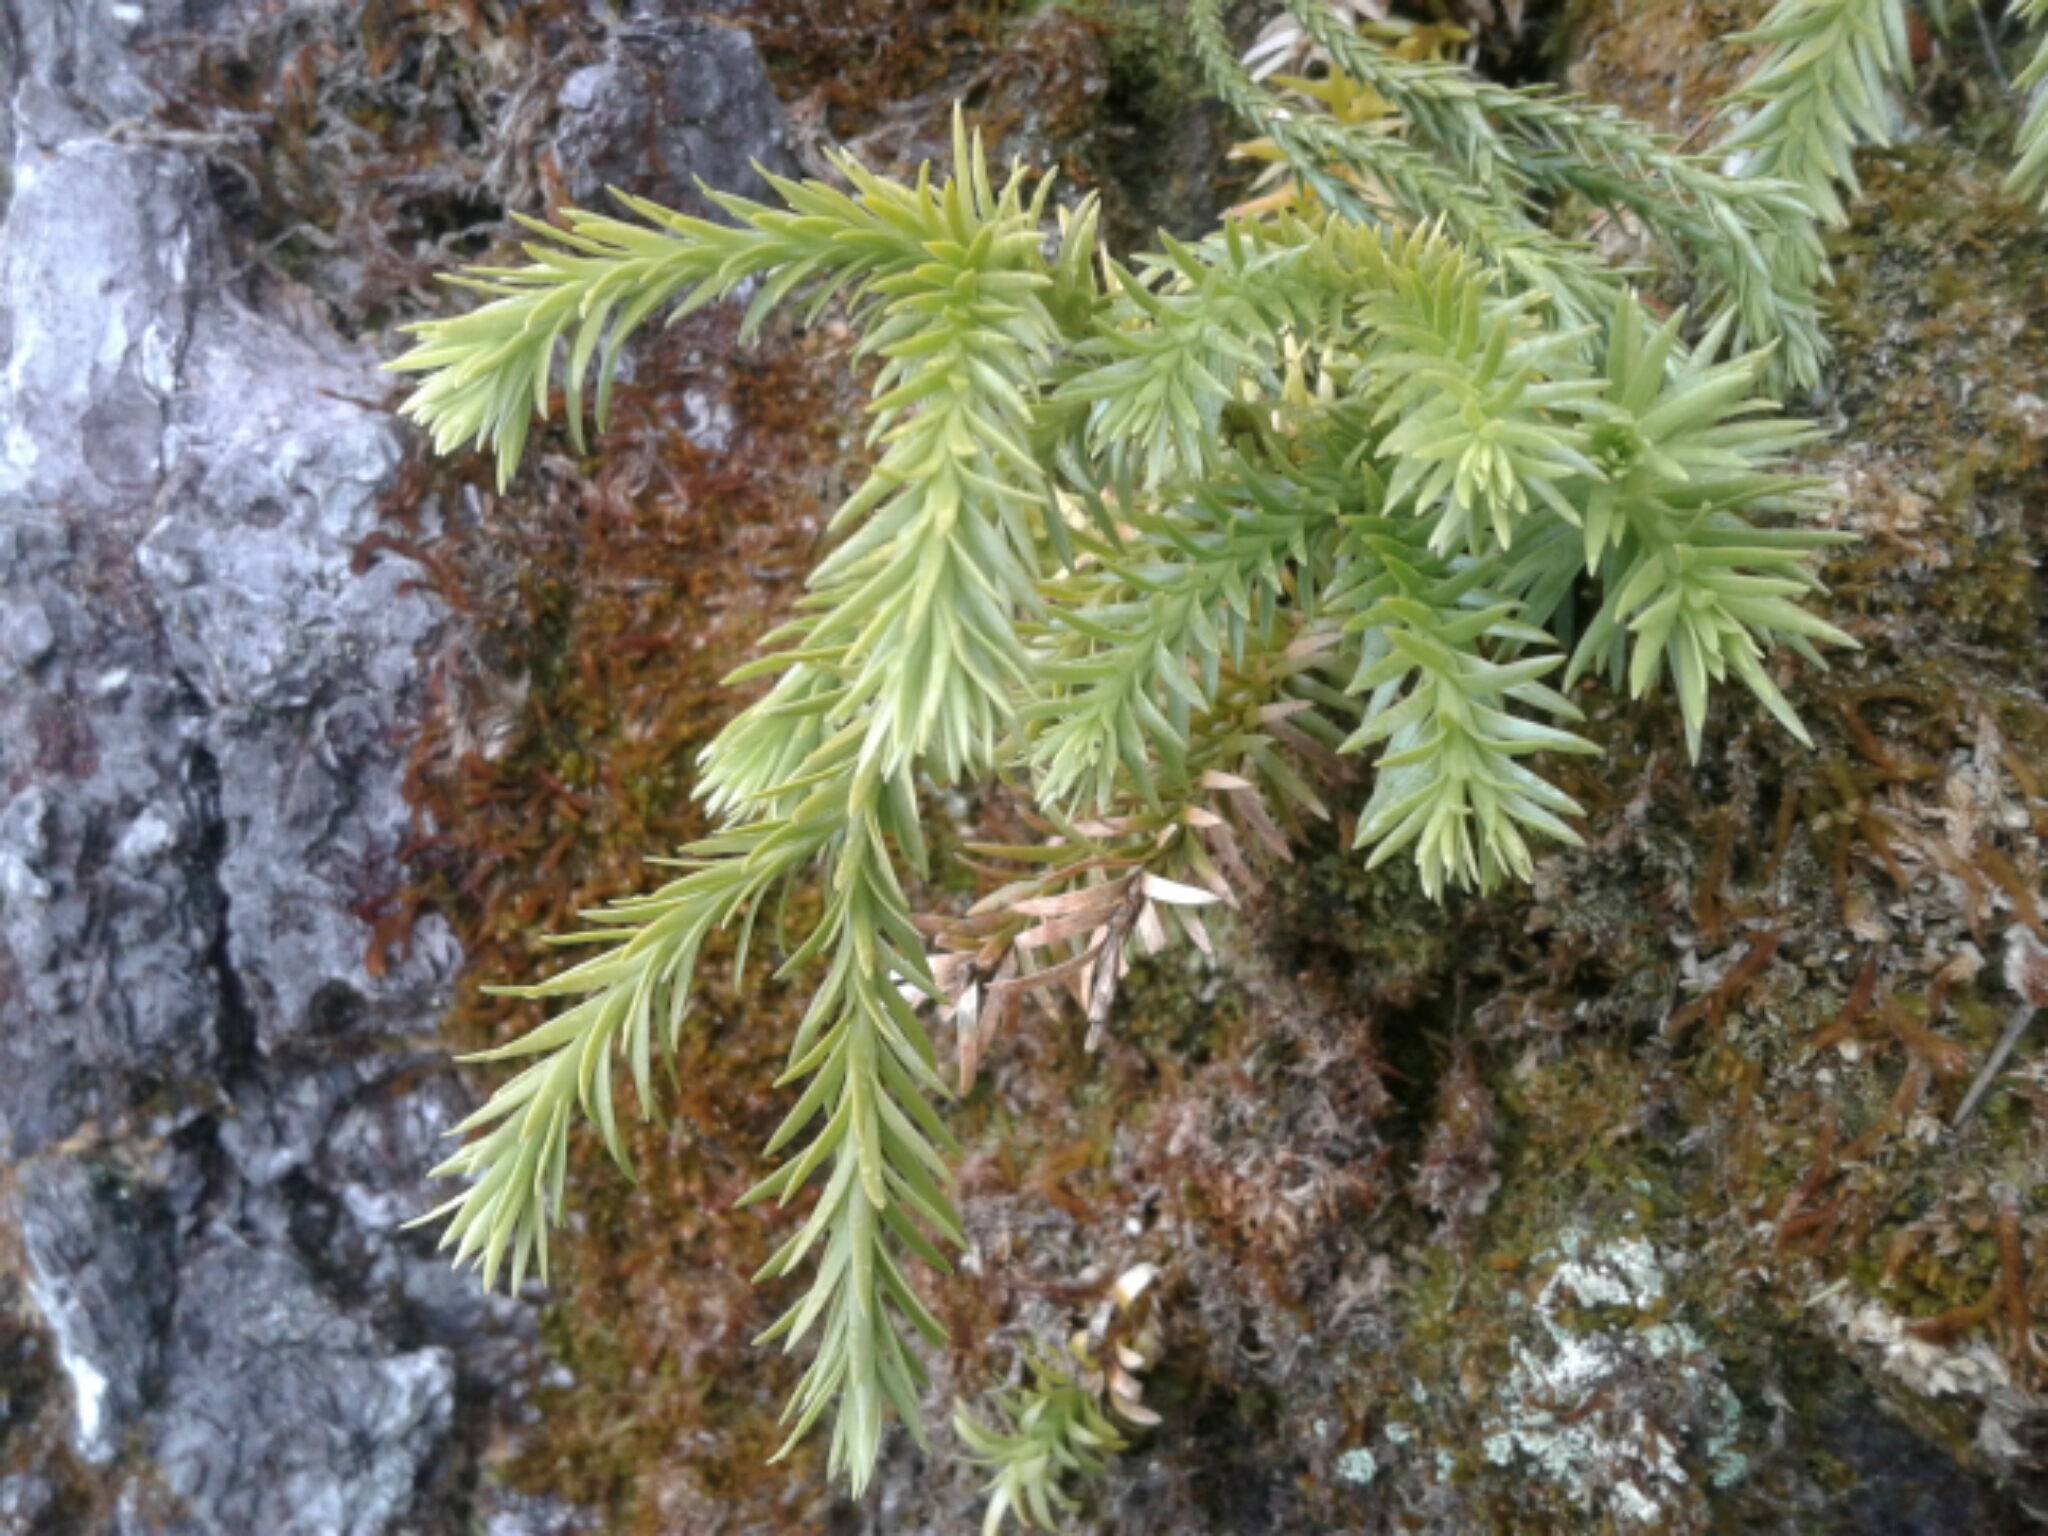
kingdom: Plantae
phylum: Tracheophyta
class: Lycopodiopsida
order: Lycopodiales
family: Lycopodiaceae
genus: Phlegmariurus
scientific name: Phlegmariurus varius
